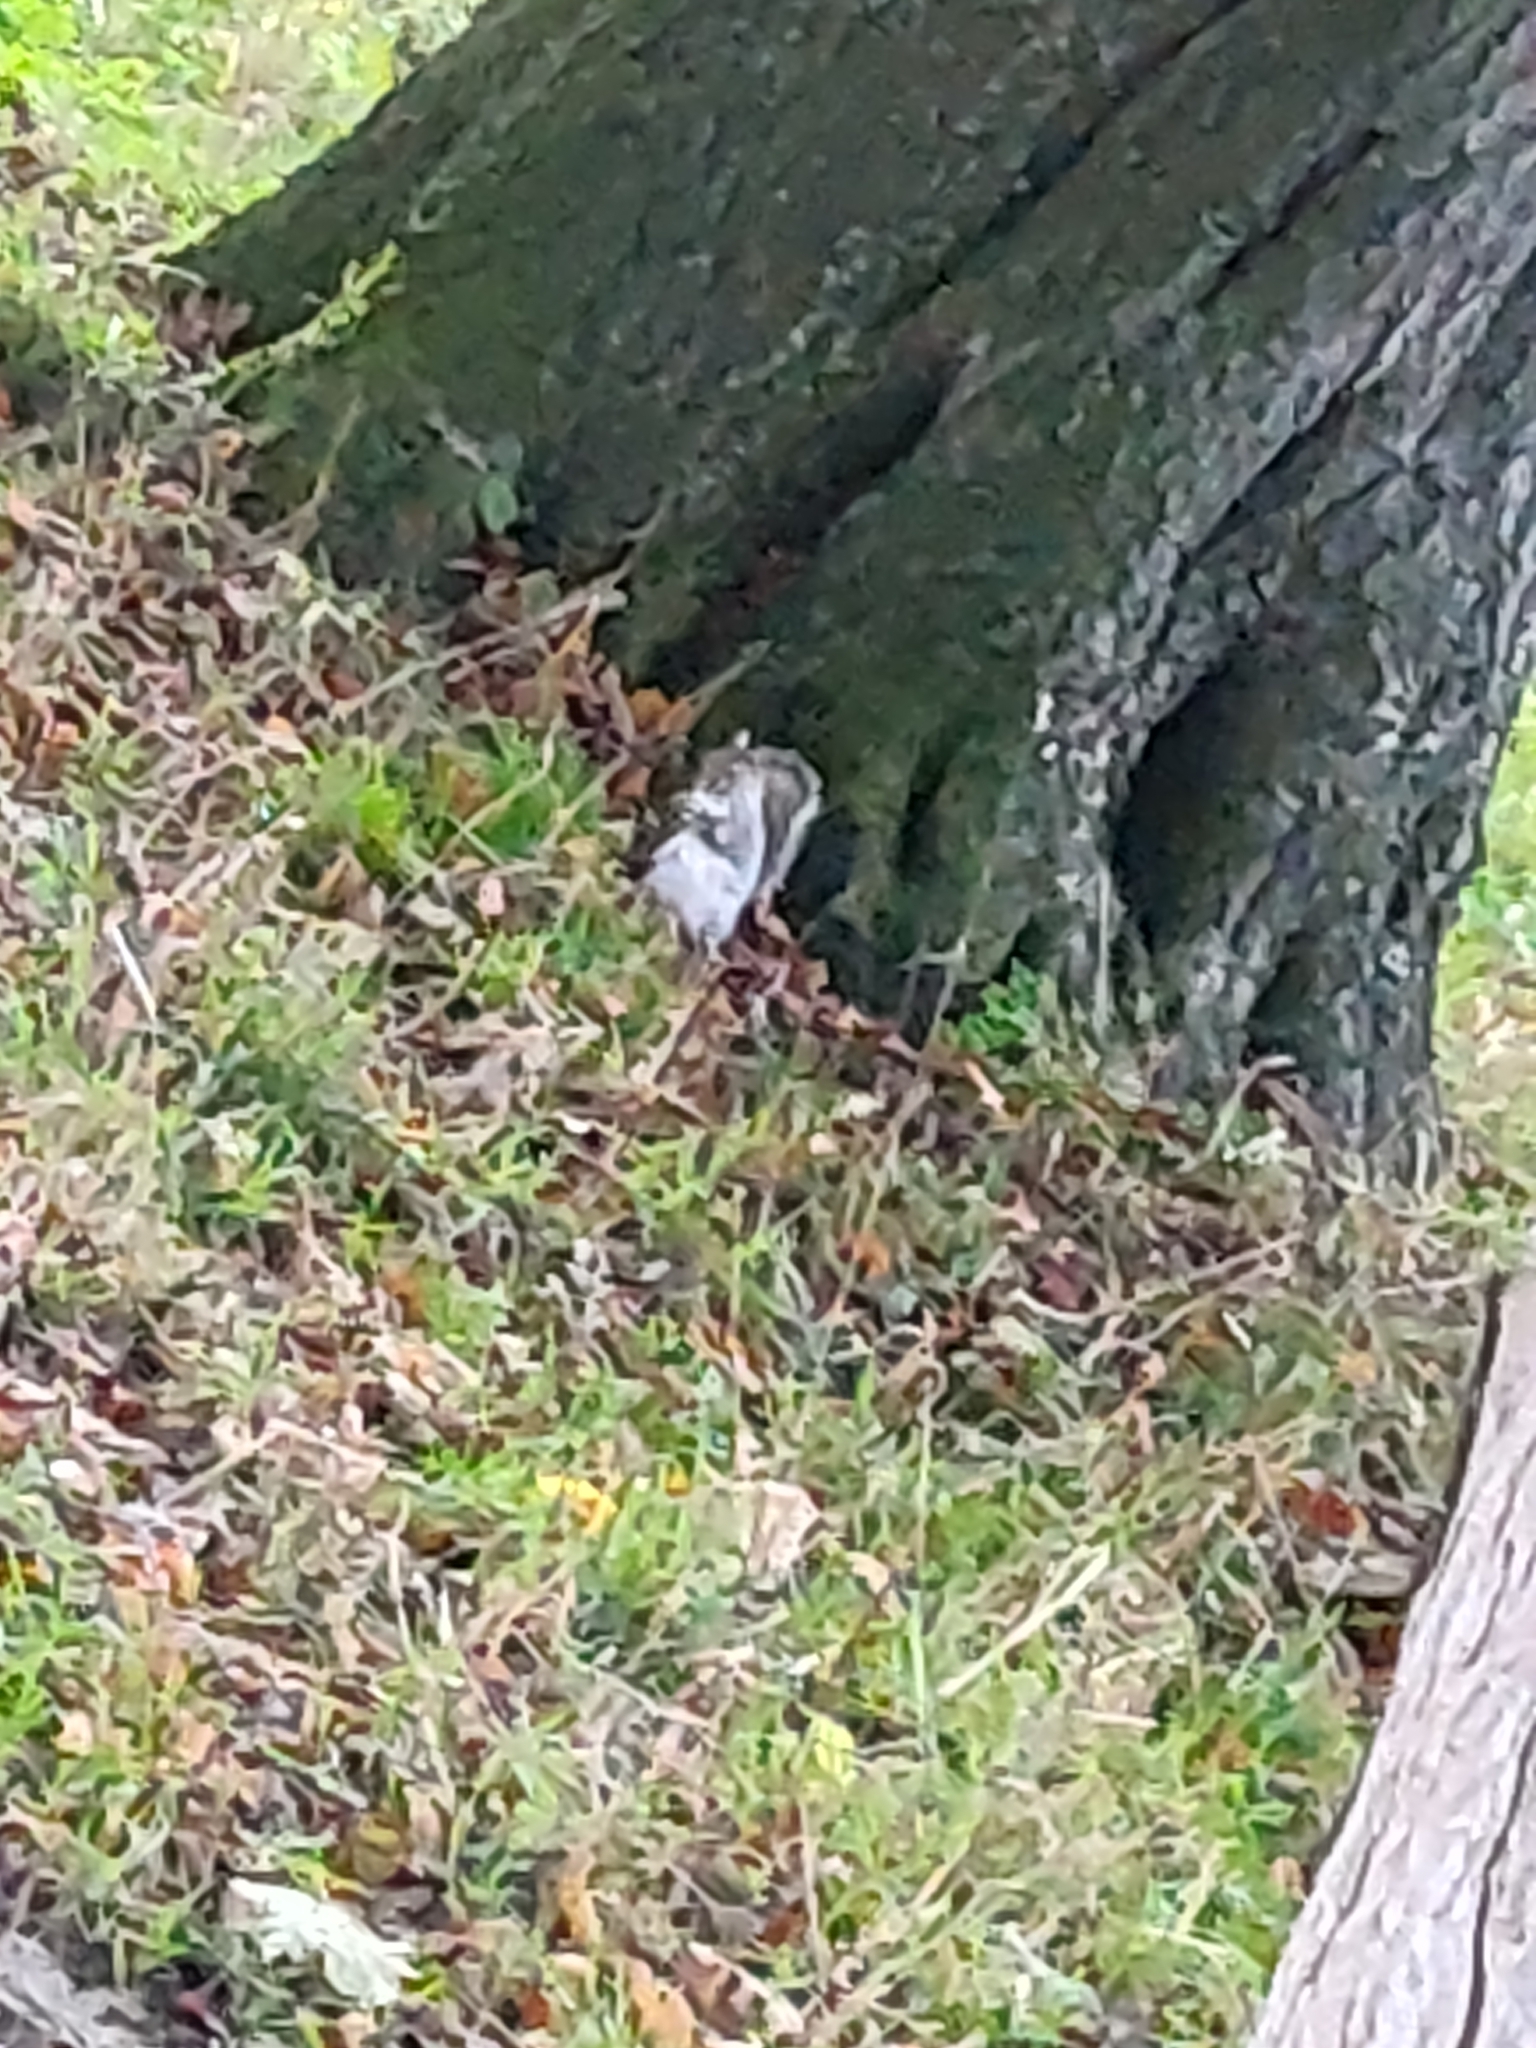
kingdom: Animalia
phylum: Chordata
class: Mammalia
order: Rodentia
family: Sciuridae
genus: Sciurus
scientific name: Sciurus carolinensis
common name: Eastern gray squirrel
